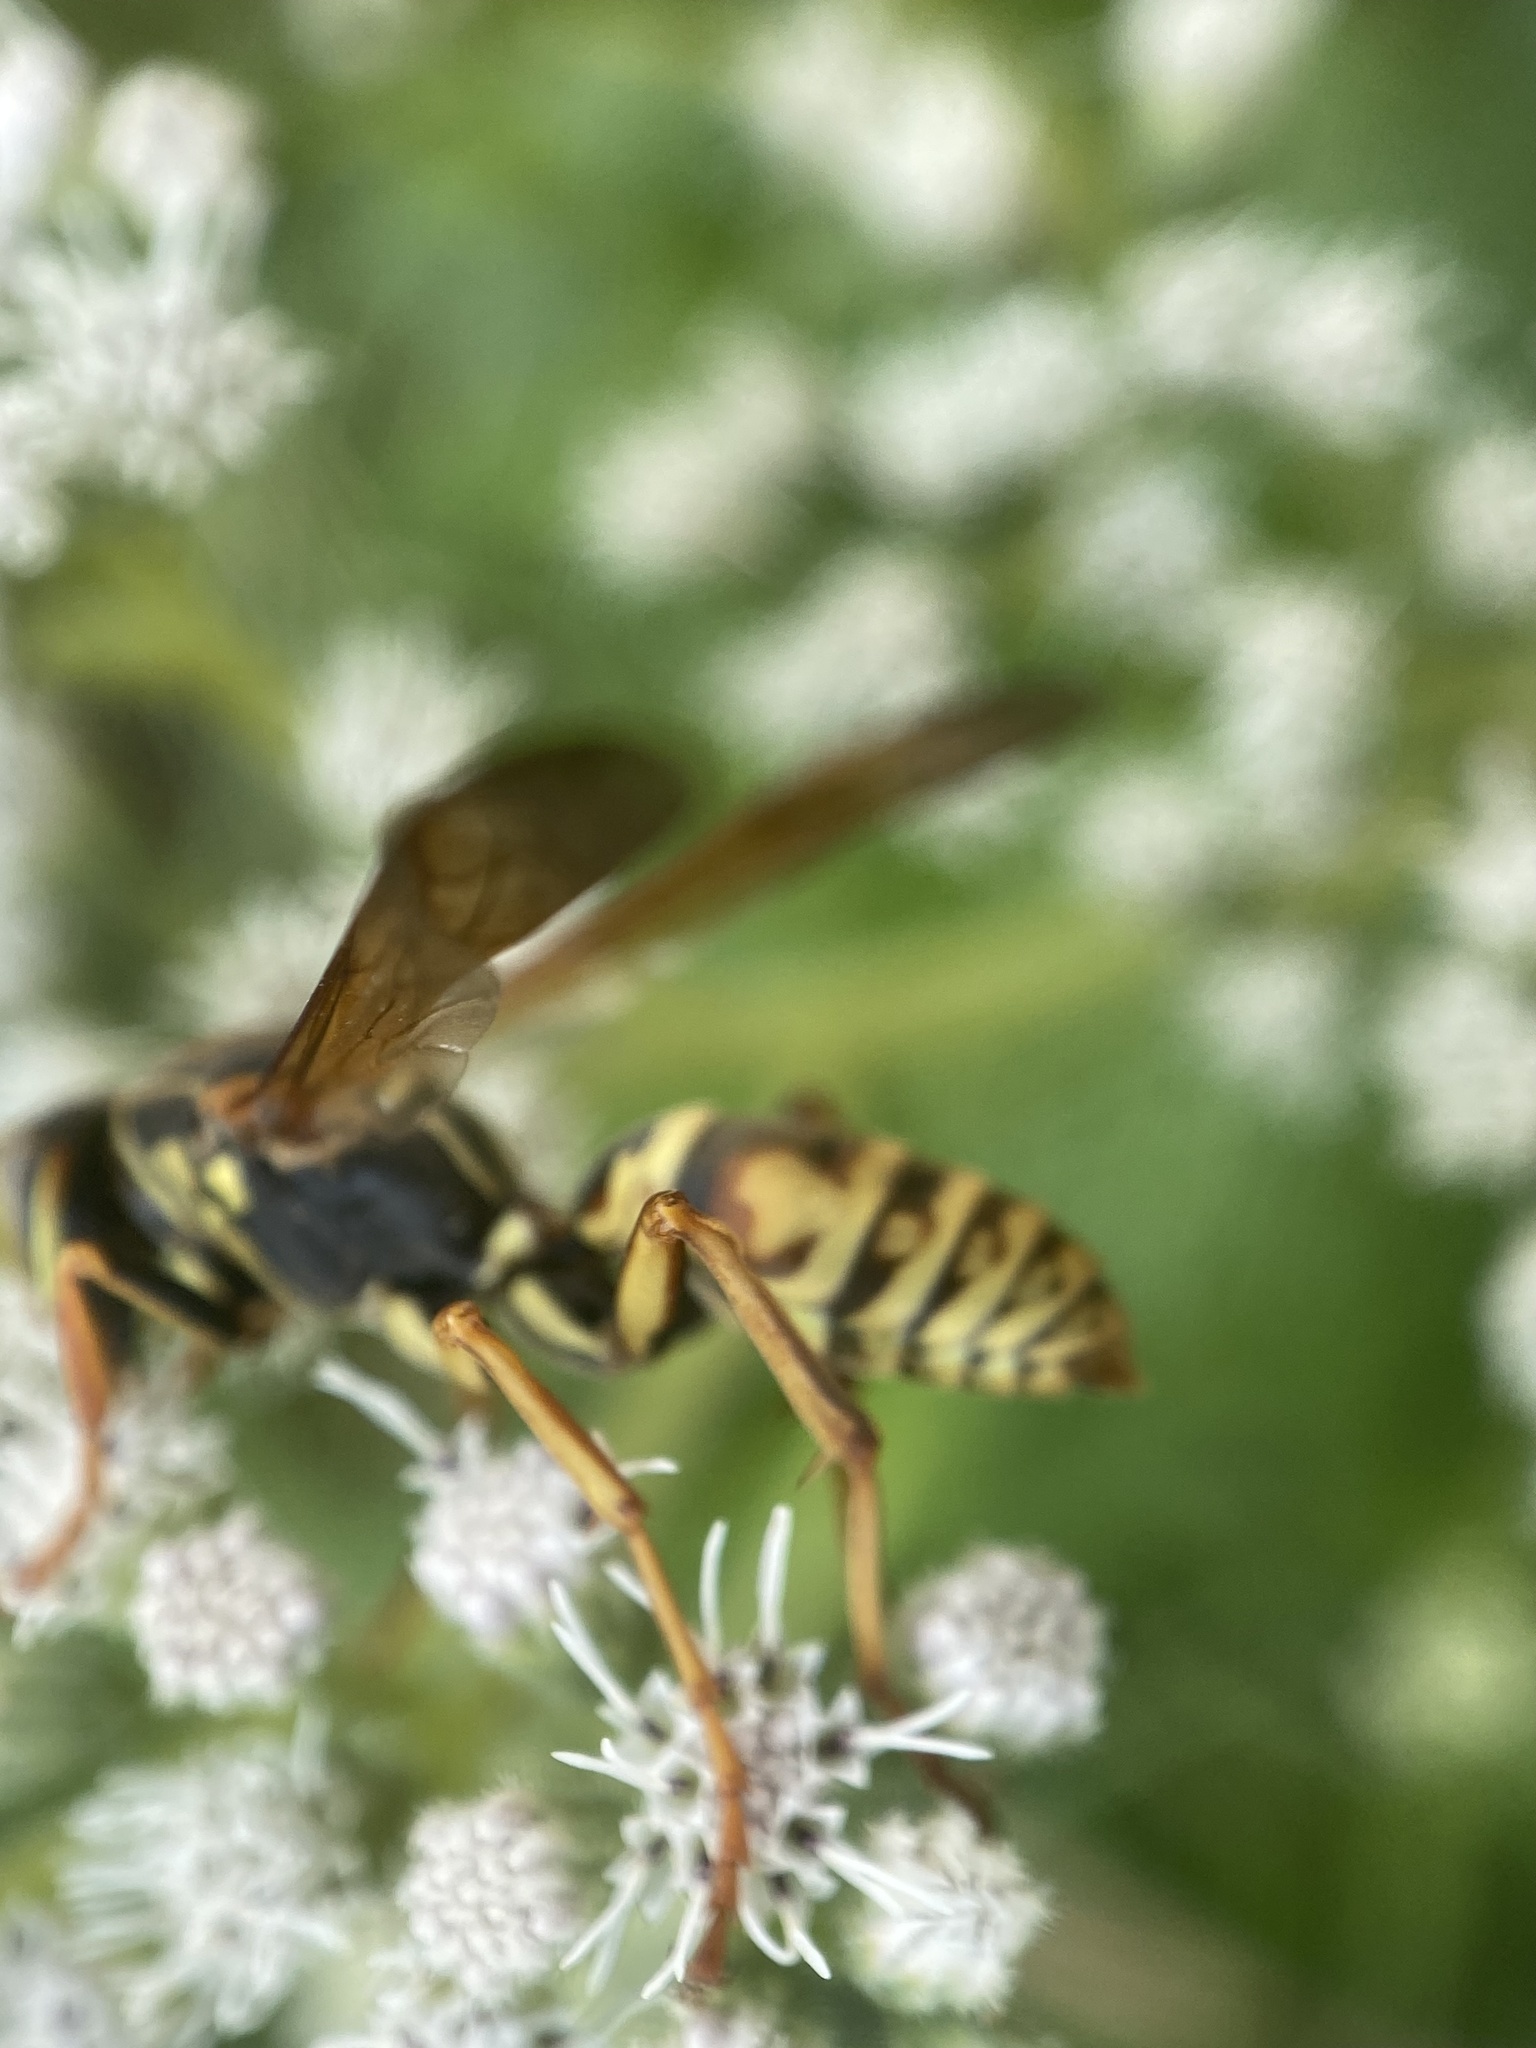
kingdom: Animalia
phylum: Arthropoda
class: Insecta
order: Hymenoptera
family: Eumenidae
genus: Polistes
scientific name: Polistes fuscatus
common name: Dark paper wasp
